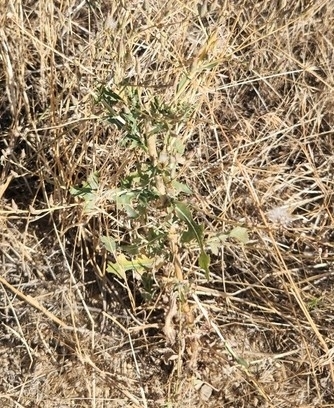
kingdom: Plantae
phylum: Tracheophyta
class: Magnoliopsida
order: Asterales
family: Asteraceae
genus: Lactuca
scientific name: Lactuca serriola
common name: Prickly lettuce
